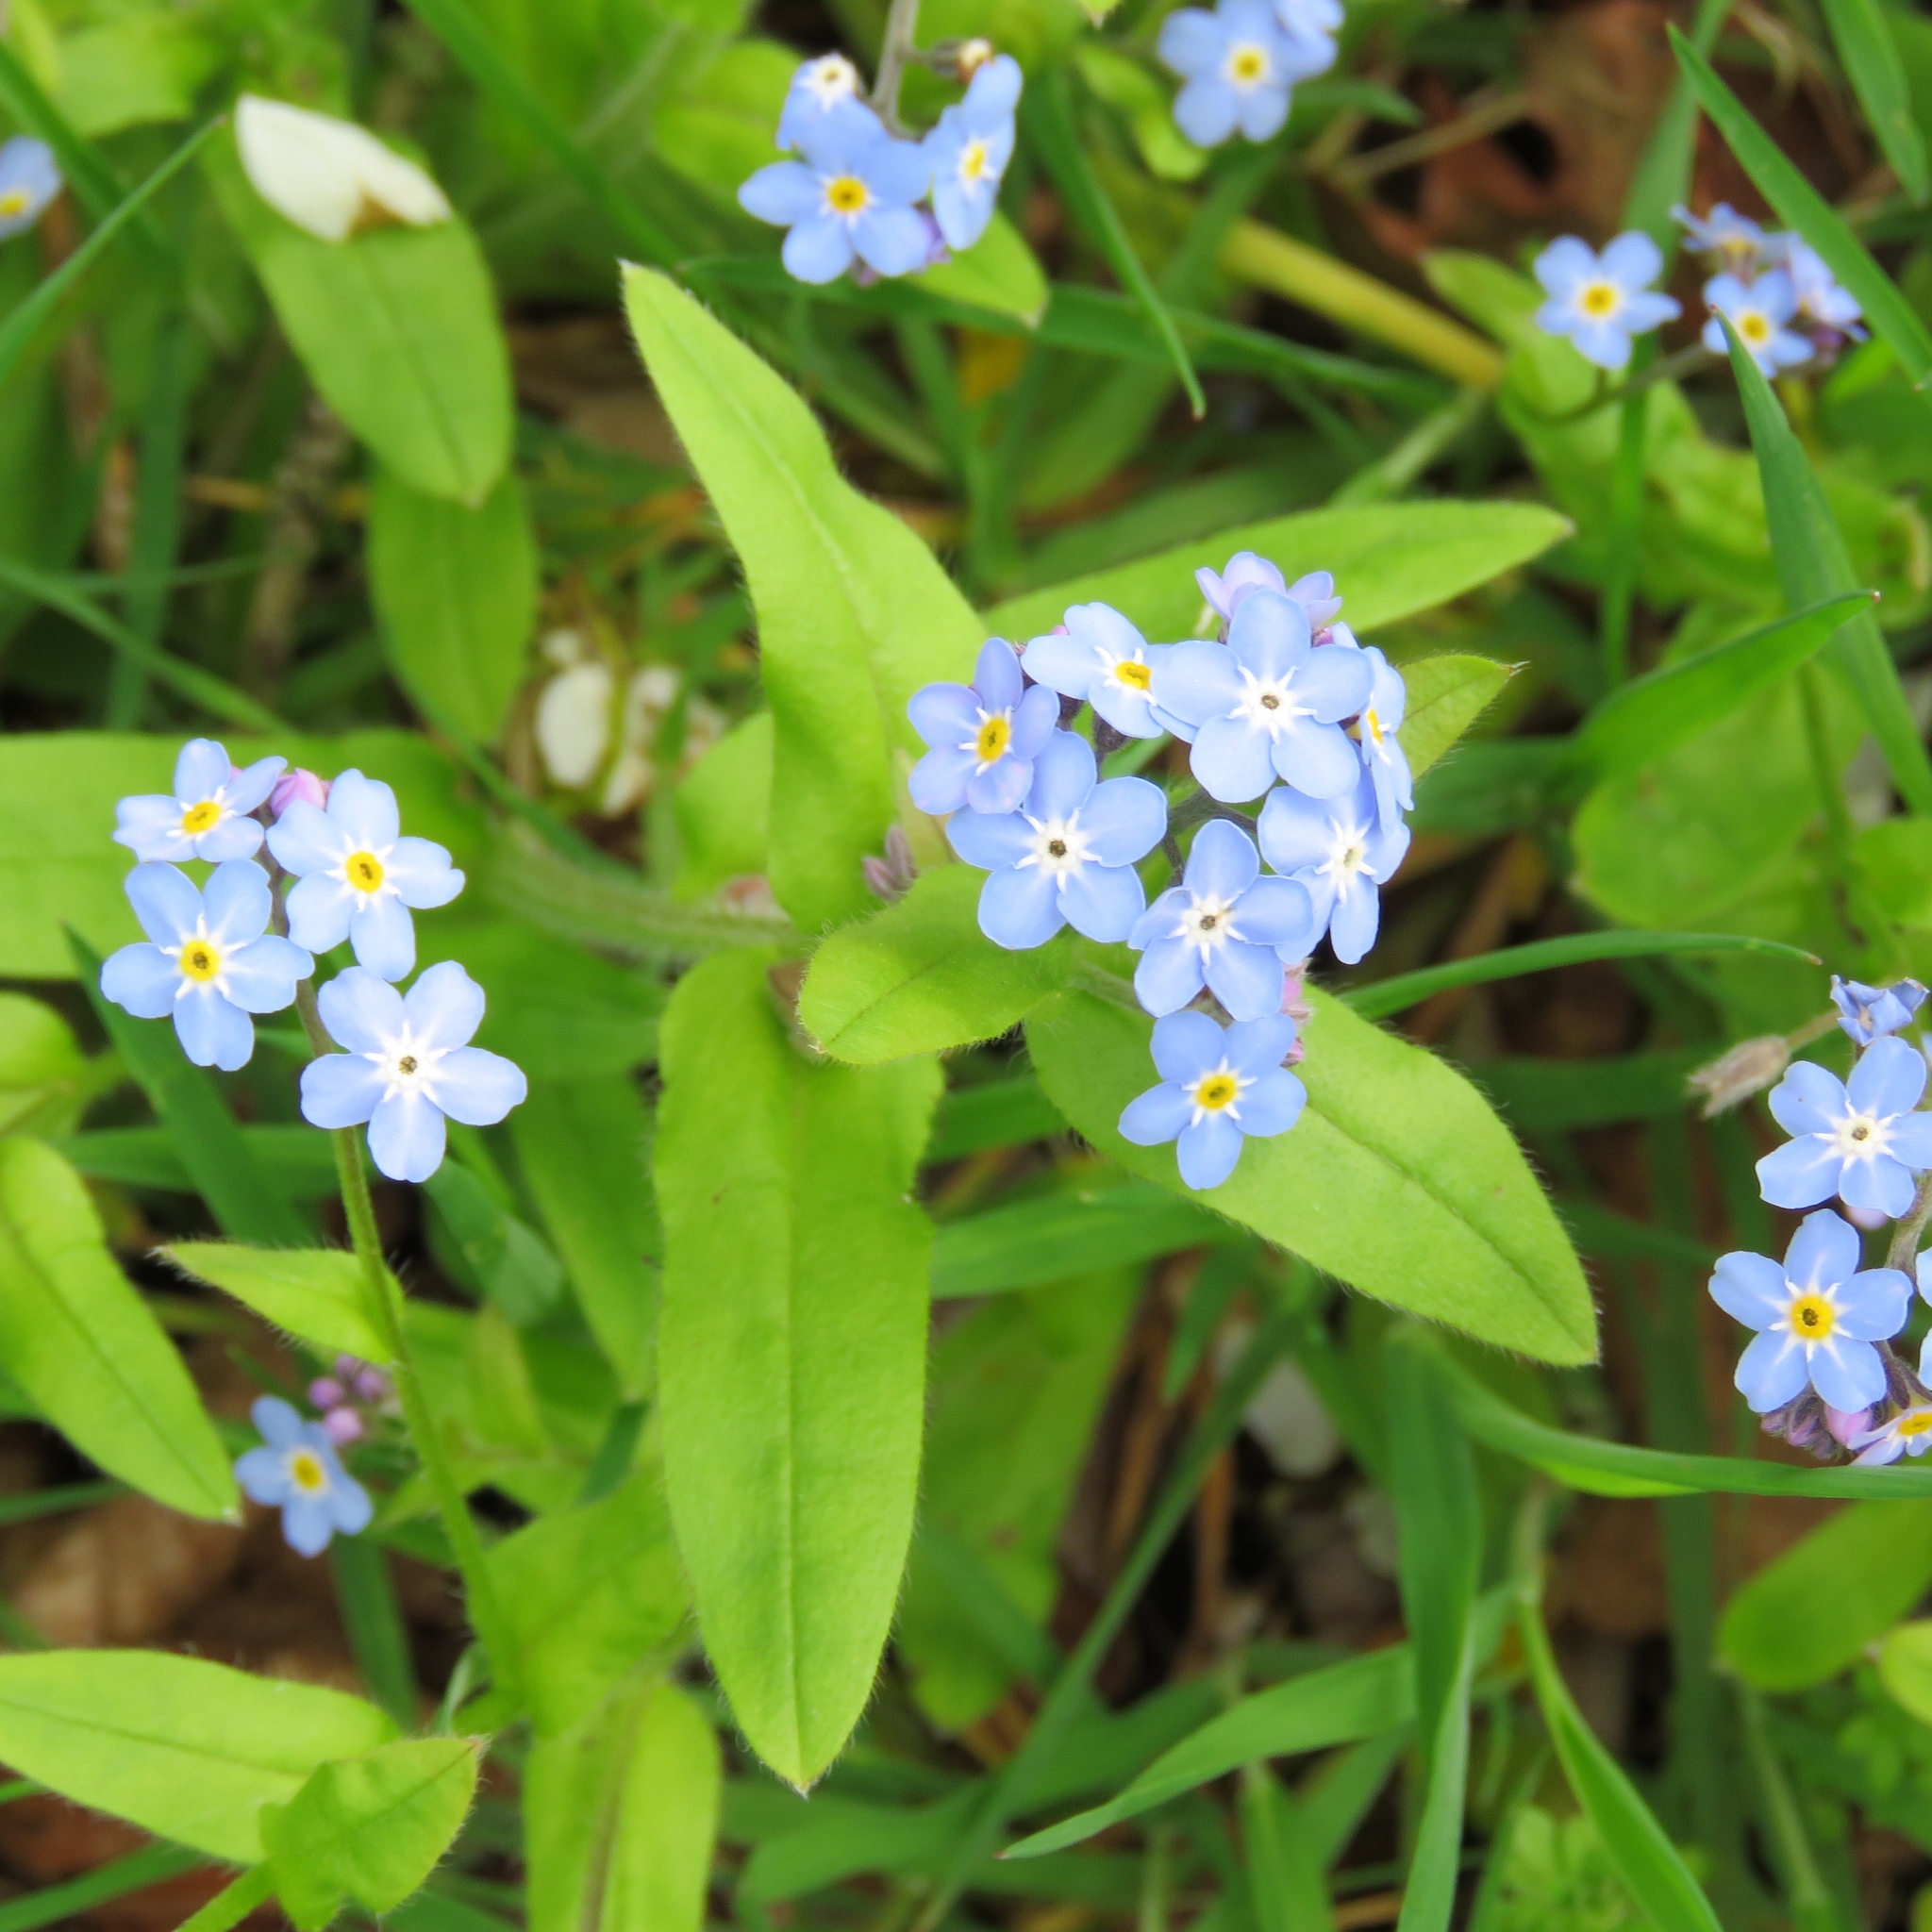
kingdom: Plantae
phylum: Tracheophyta
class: Magnoliopsida
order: Boraginales
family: Boraginaceae
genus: Myosotis
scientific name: Myosotis sylvatica
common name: Wood forget-me-not
